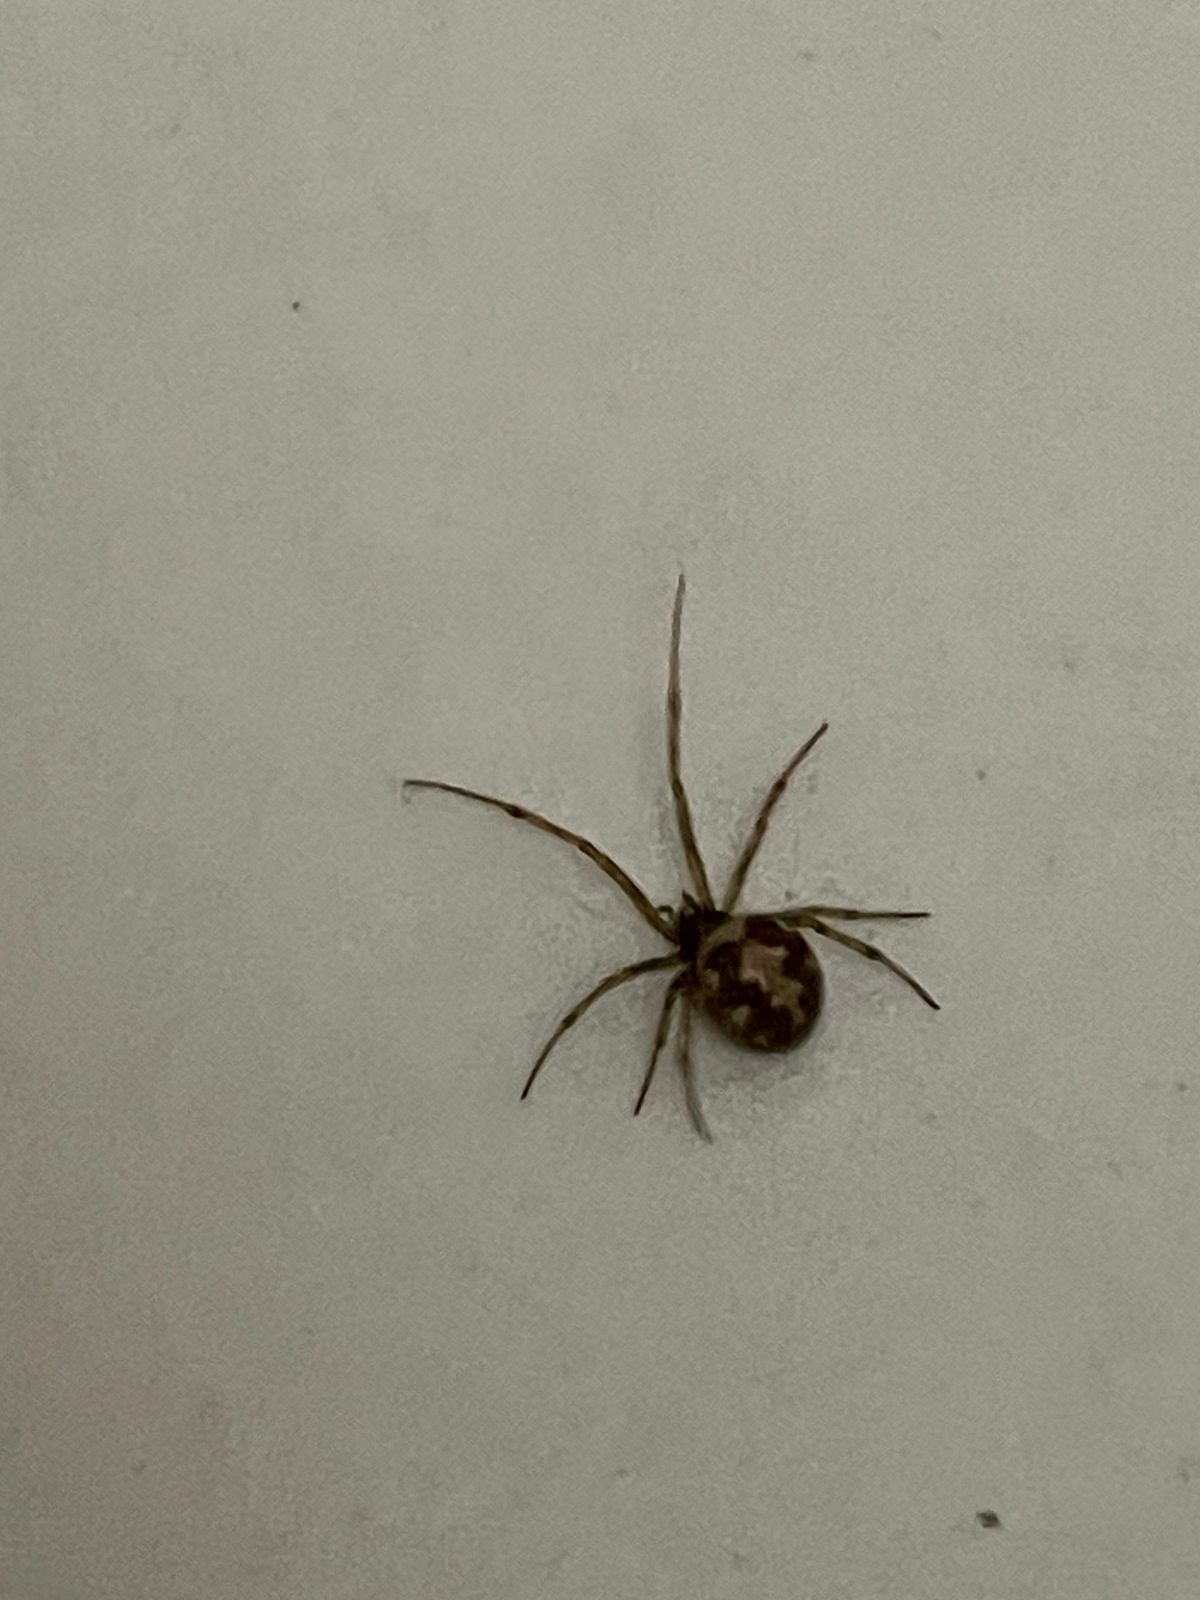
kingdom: Animalia
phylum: Arthropoda
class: Arachnida
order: Araneae
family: Theridiidae
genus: Steatoda
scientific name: Steatoda triangulosa
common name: Triangulate bud spider
